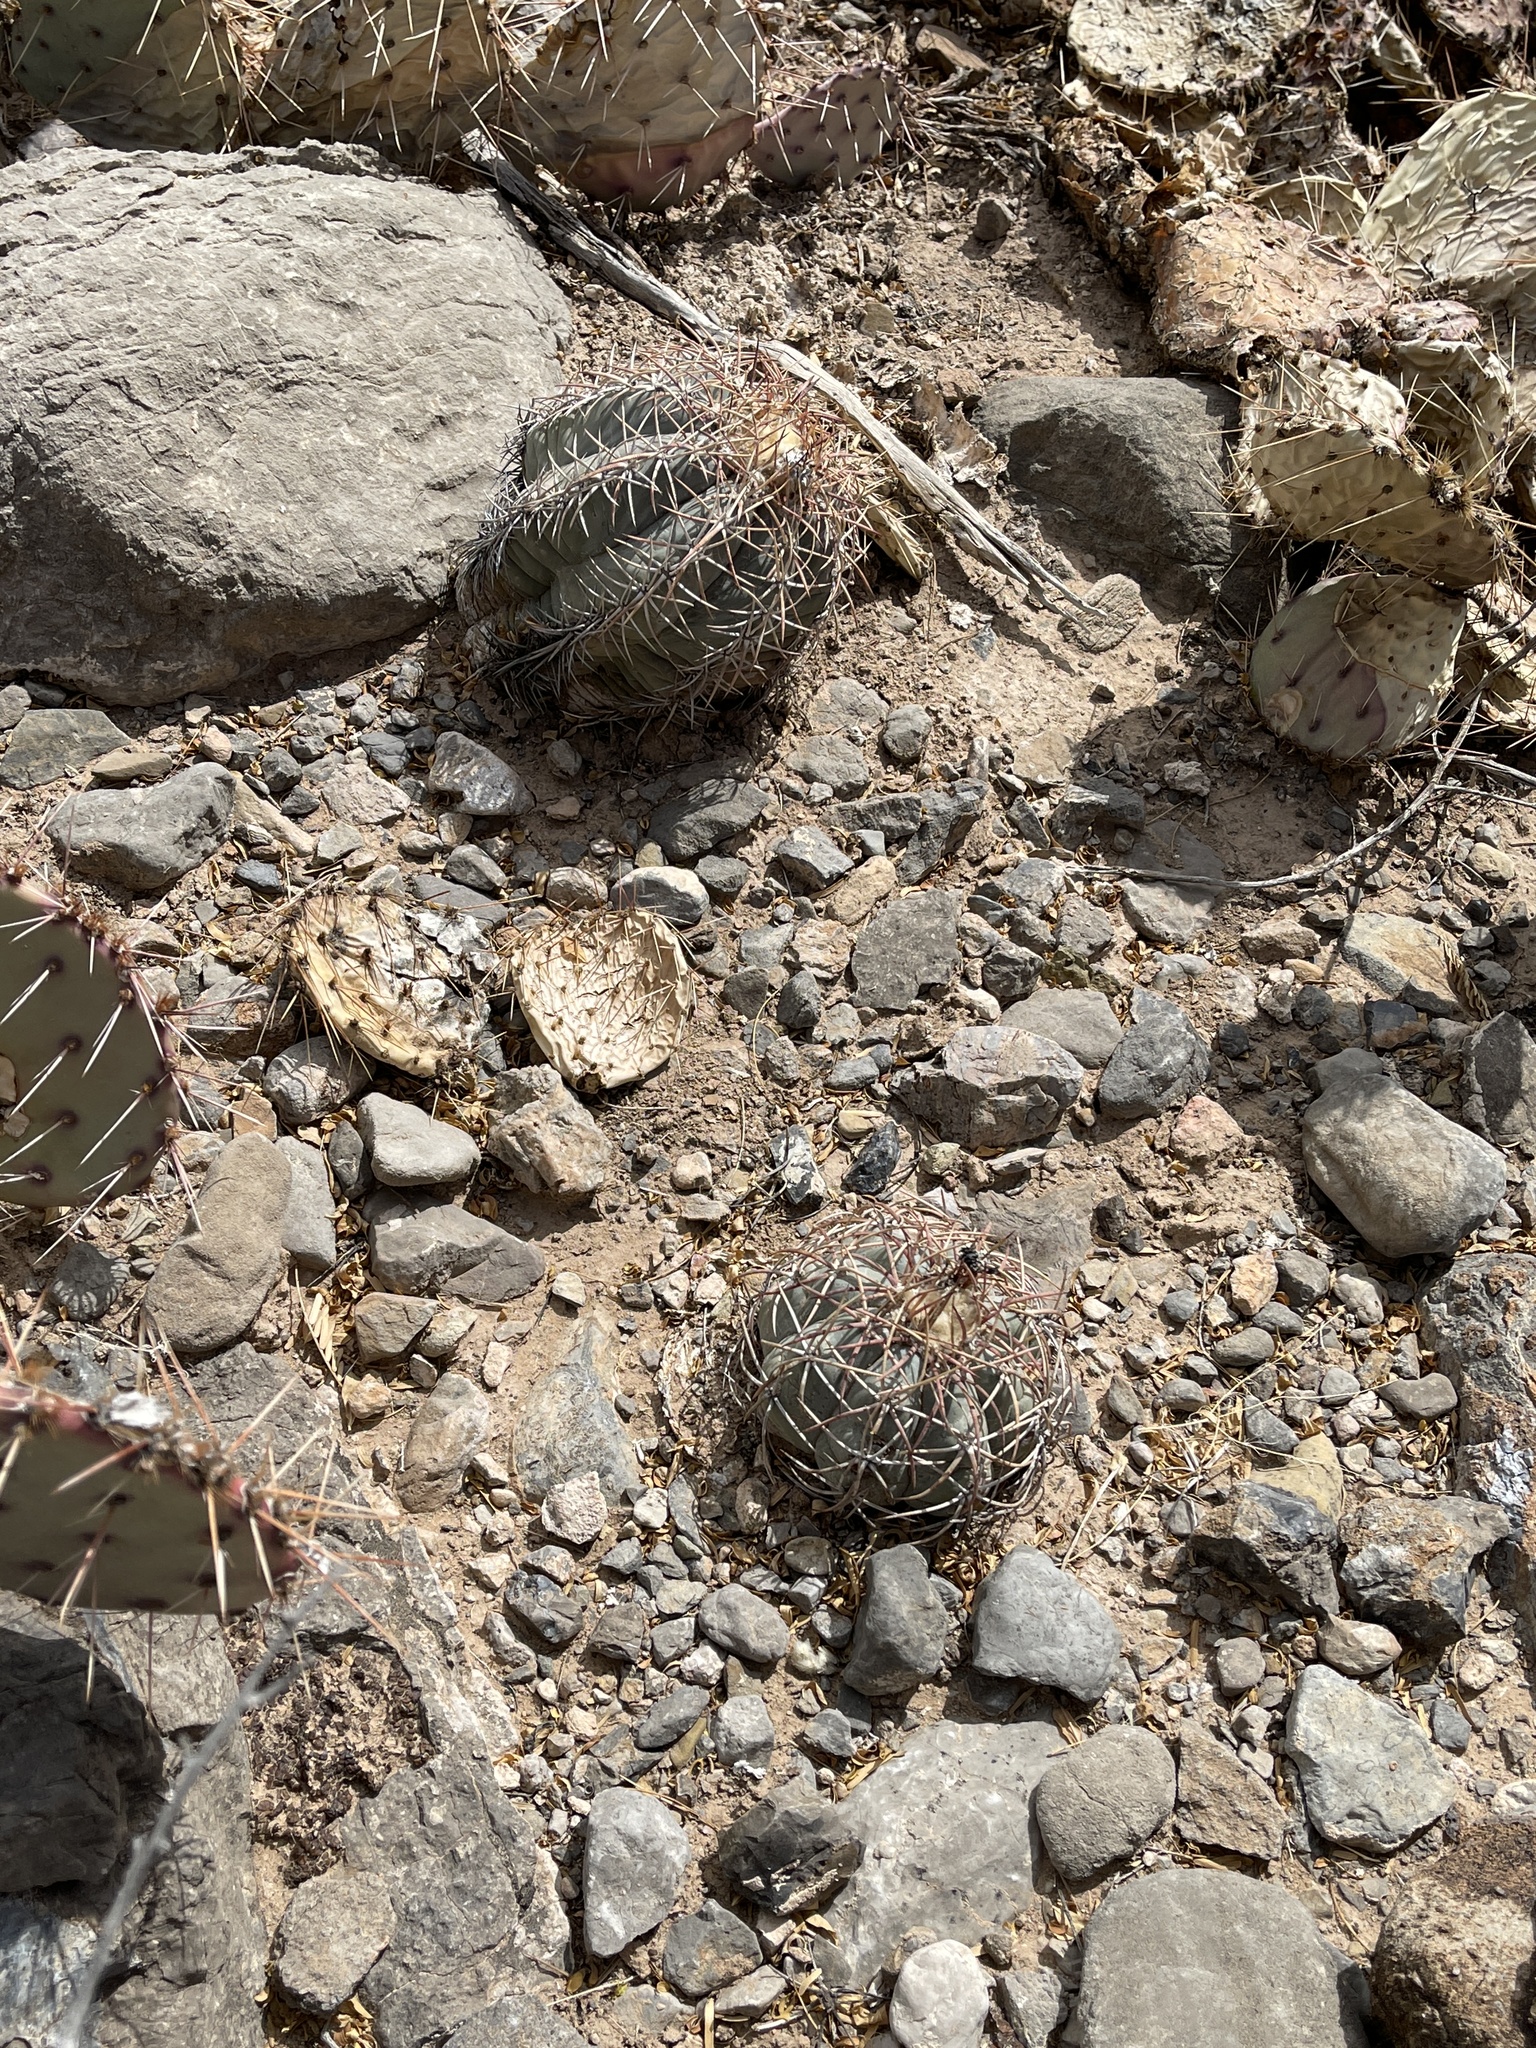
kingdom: Plantae
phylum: Tracheophyta
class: Magnoliopsida
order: Caryophyllales
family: Cactaceae
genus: Echinocactus
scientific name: Echinocactus horizonthalonius
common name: Devilshead
